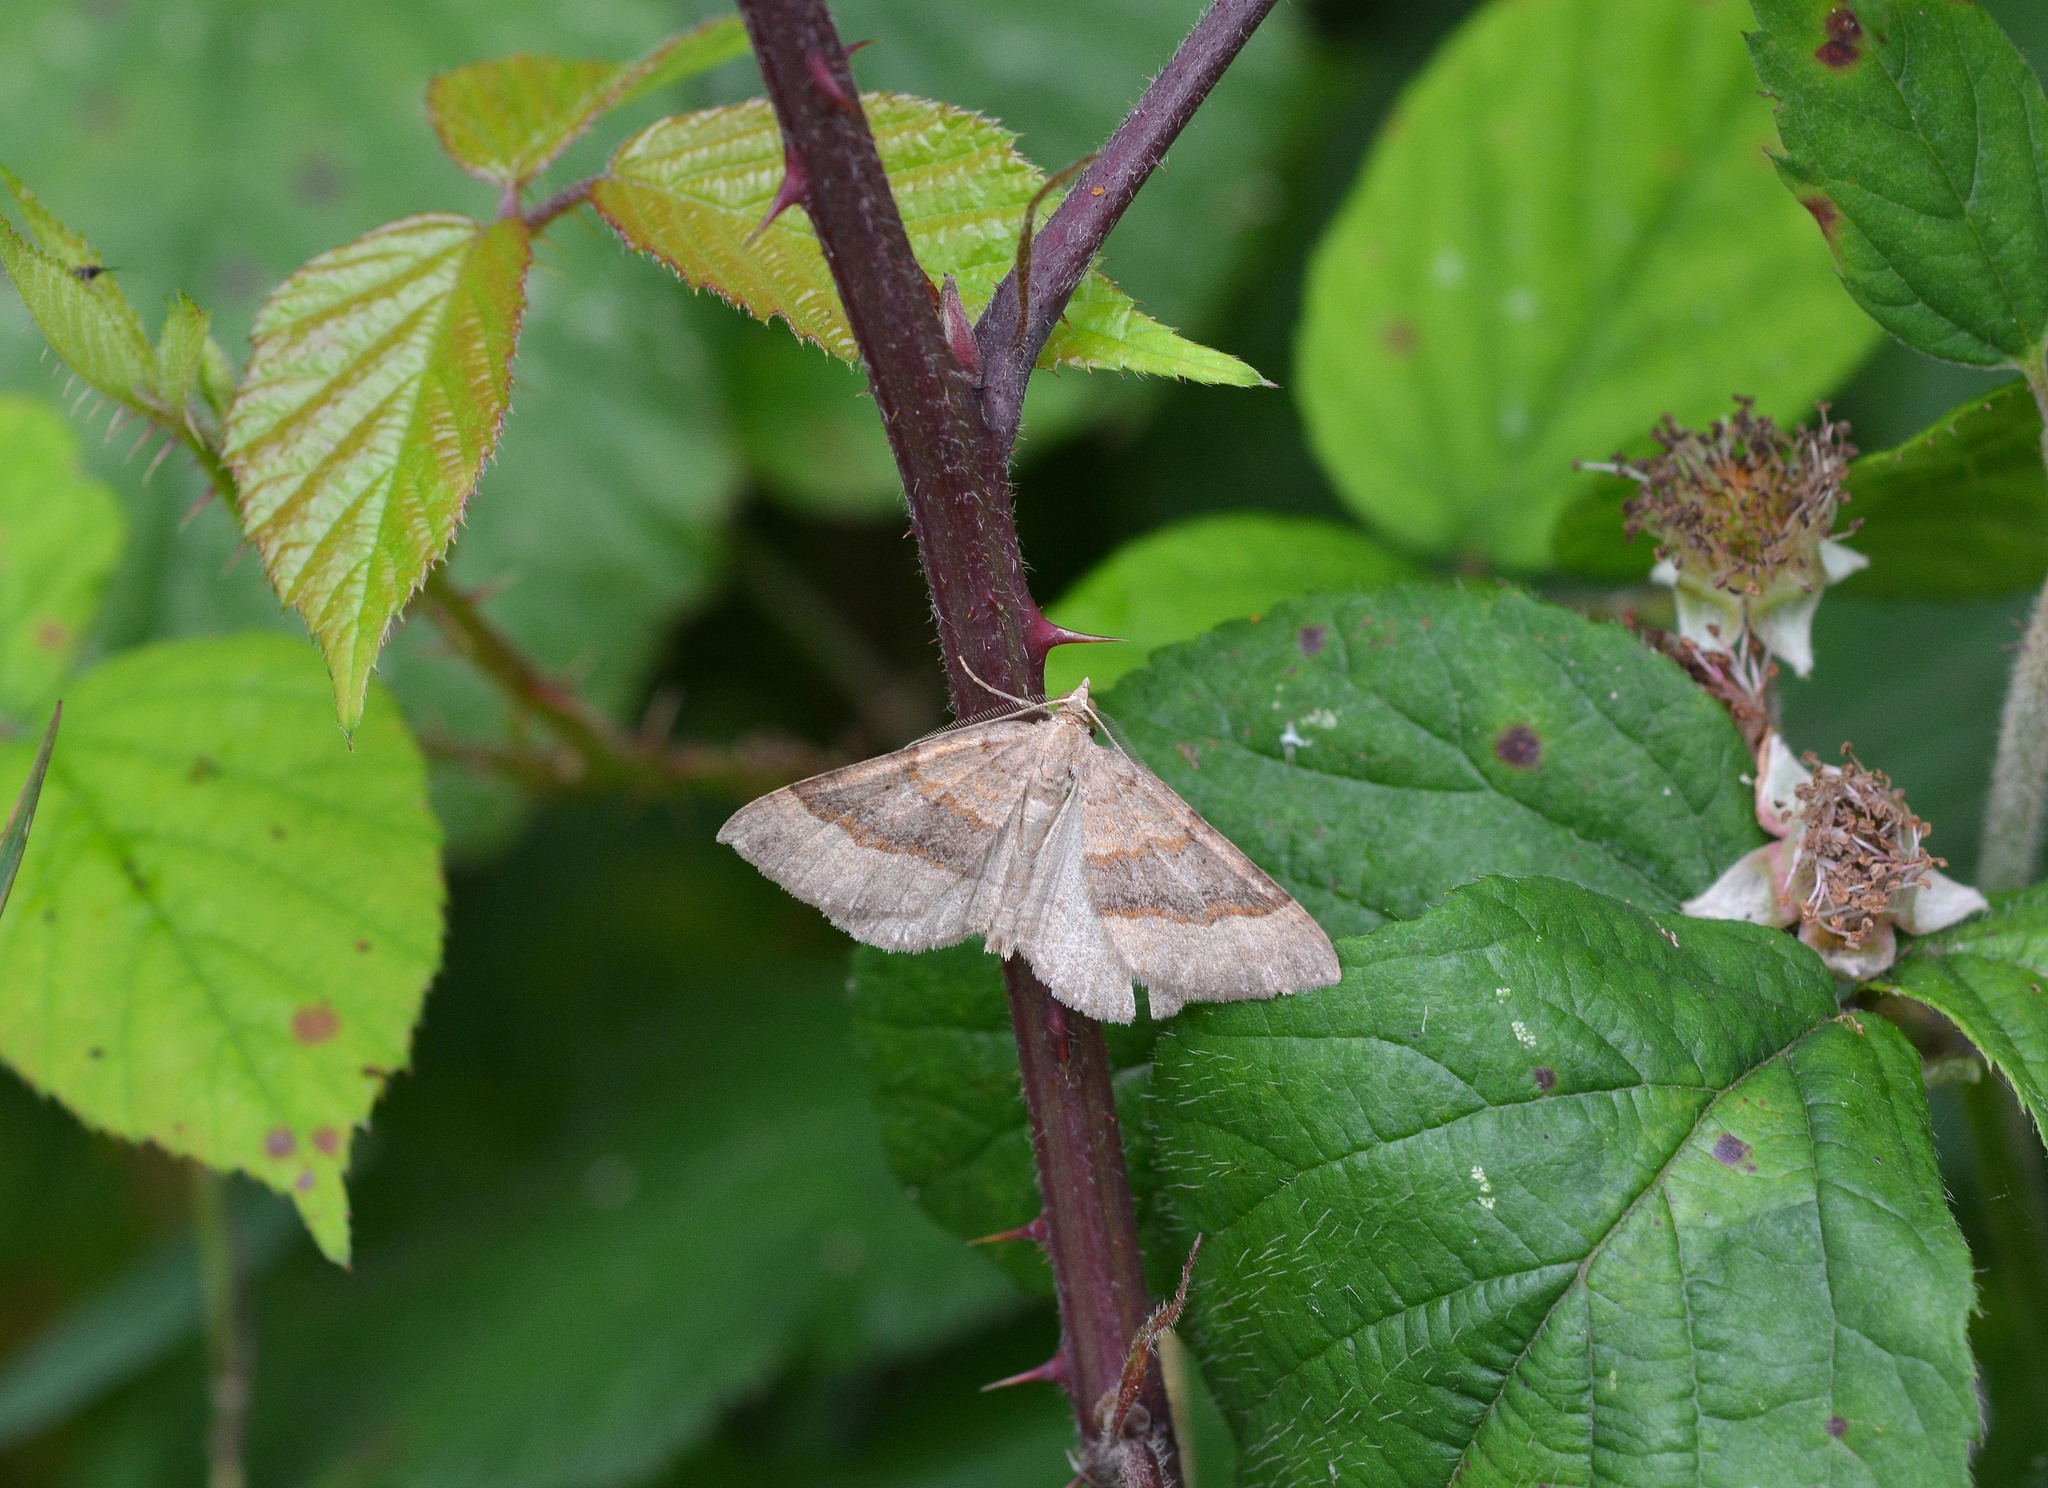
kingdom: Animalia
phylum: Arthropoda
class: Insecta
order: Lepidoptera
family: Geometridae
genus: Scotopteryx
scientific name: Scotopteryx chenopodiata
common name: Shaded broad-bar
